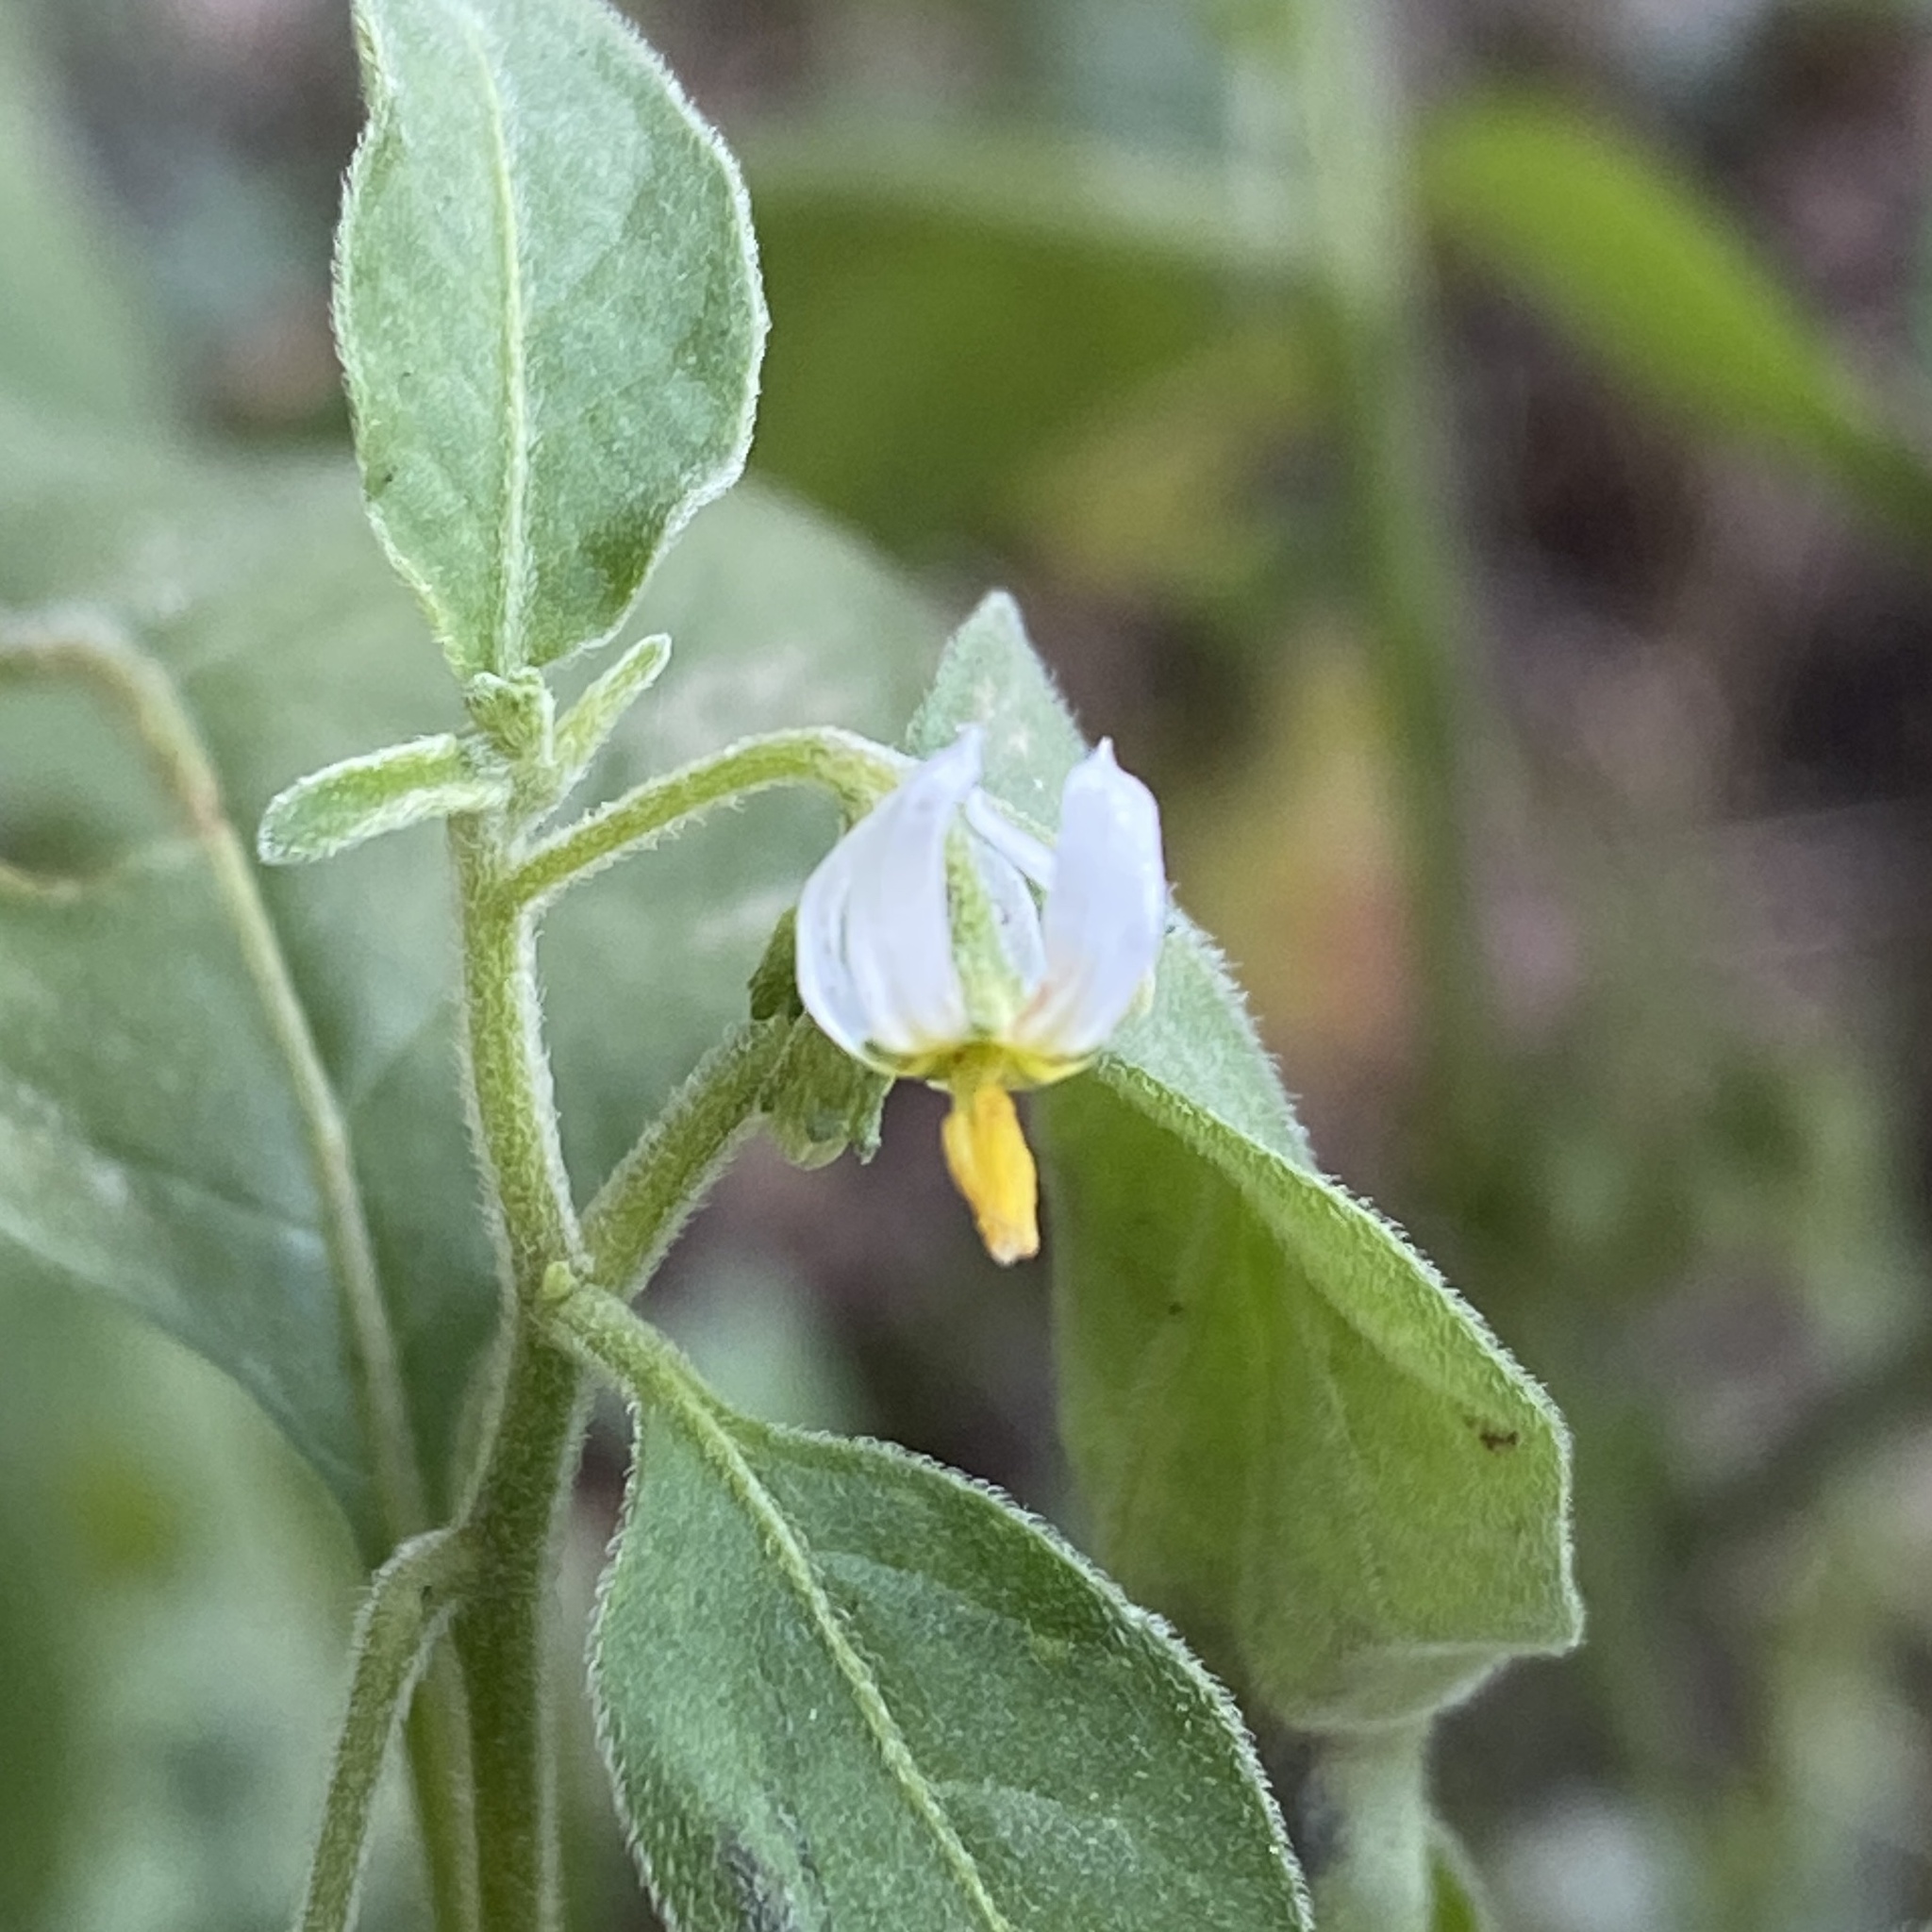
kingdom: Plantae
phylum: Tracheophyta
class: Magnoliopsida
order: Solanales
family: Solanaceae
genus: Solanum
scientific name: Solanum chenopodioides
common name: Tall nightshade
